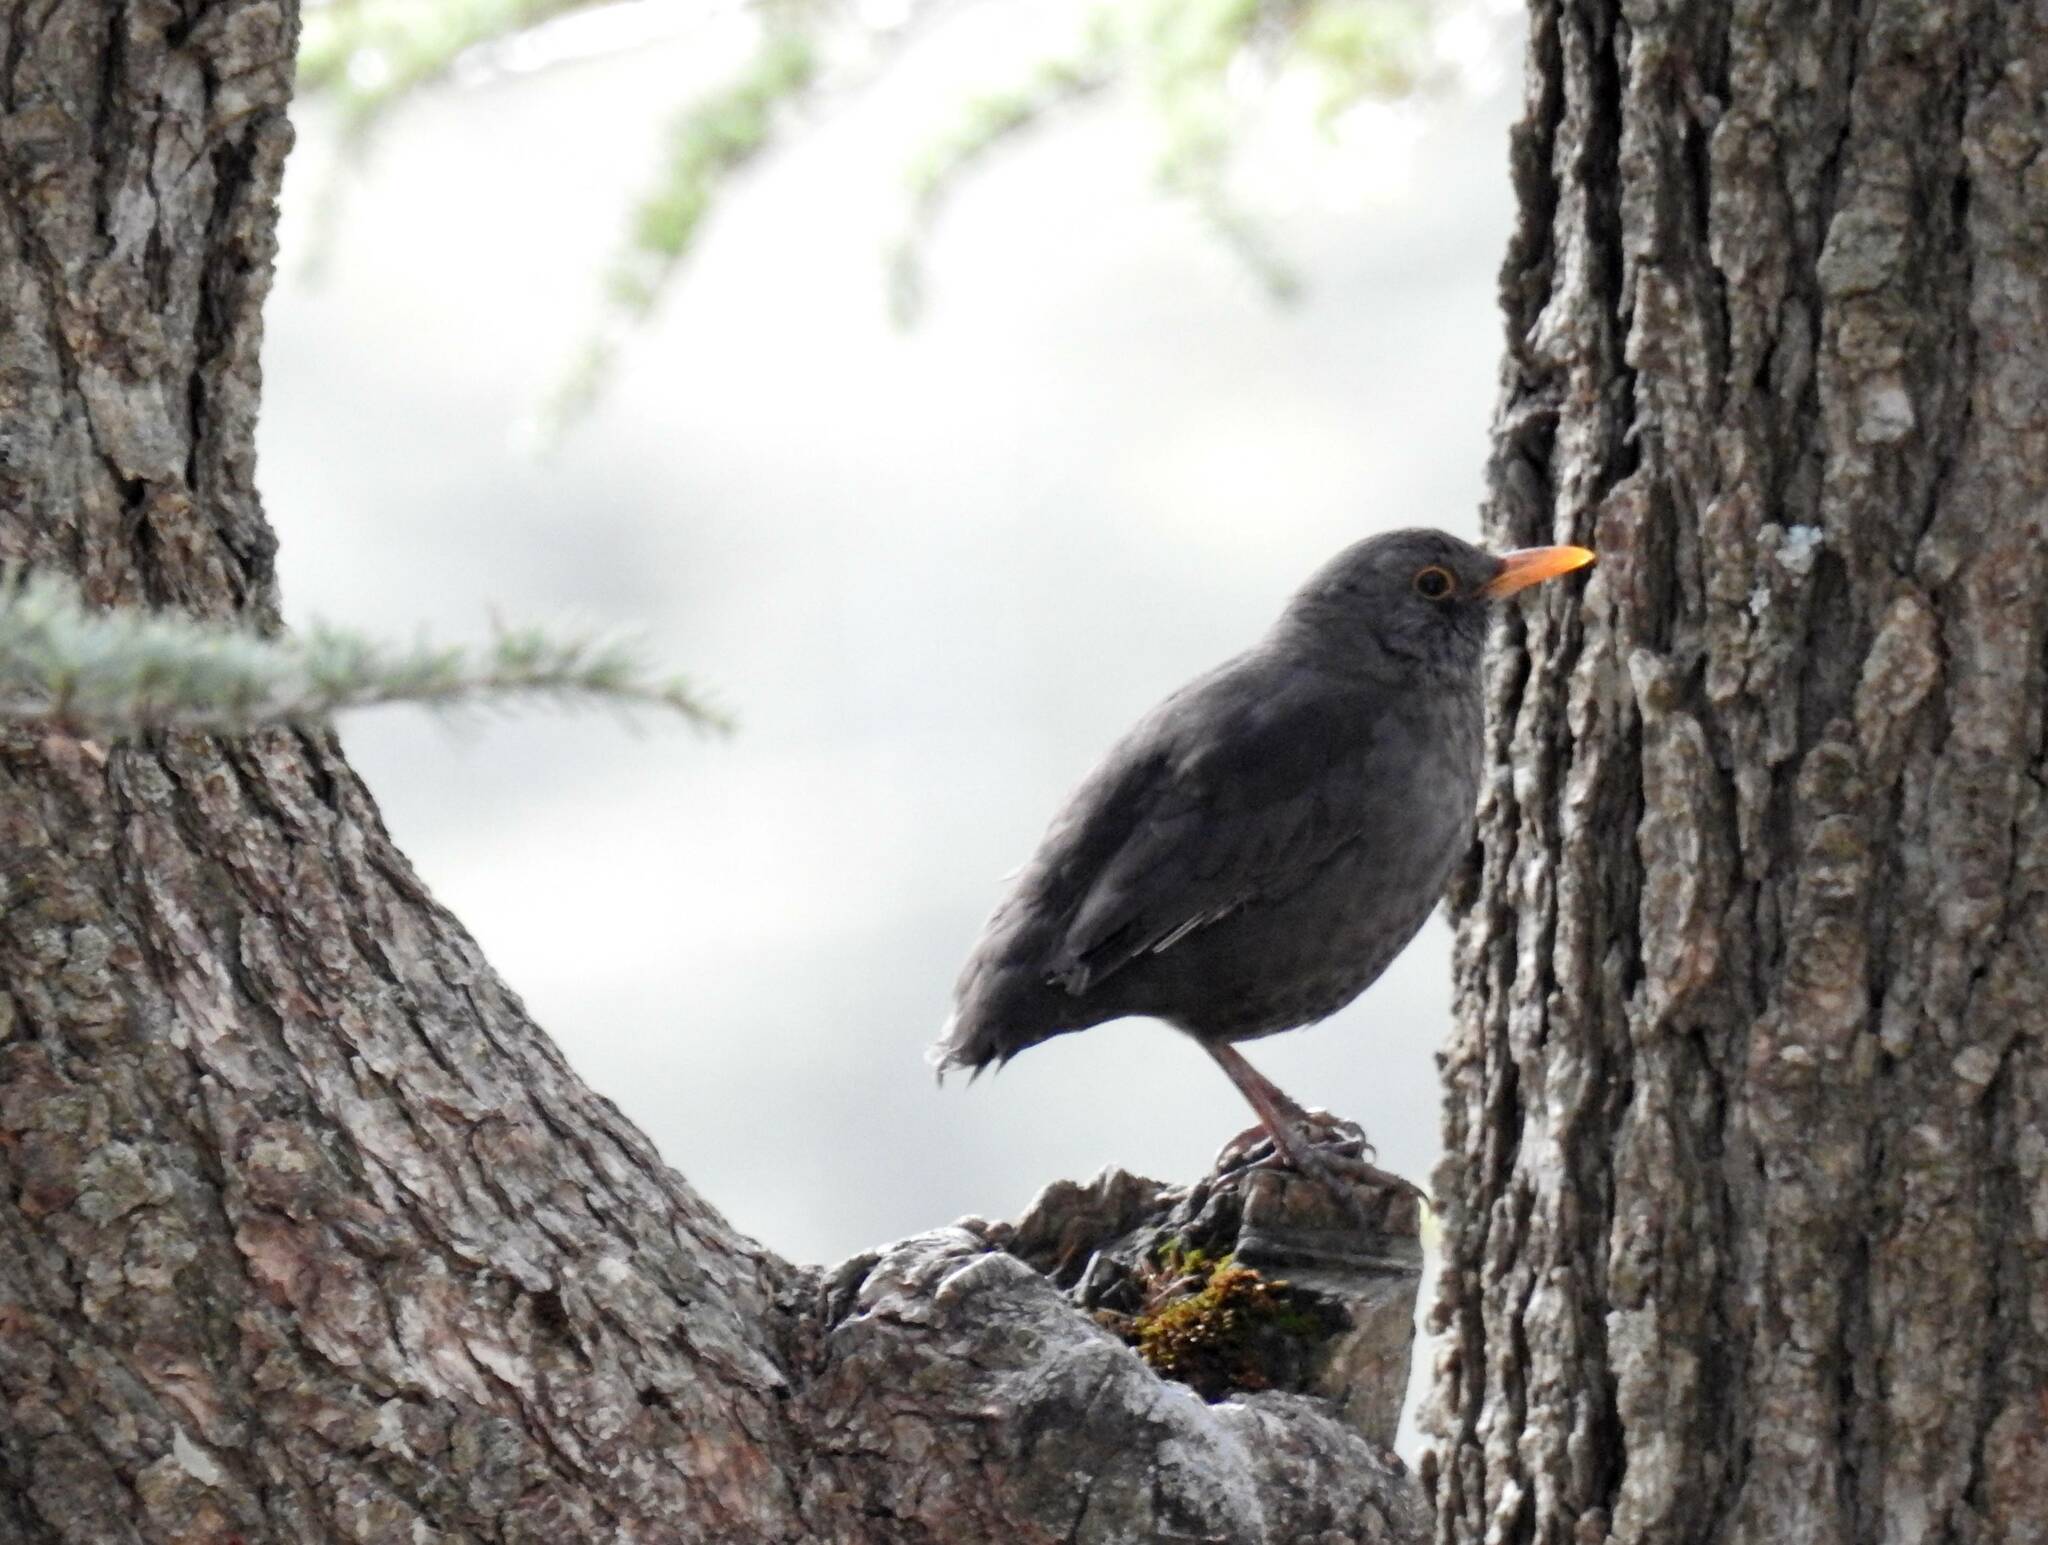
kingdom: Animalia
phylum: Chordata
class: Aves
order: Passeriformes
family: Turdidae
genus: Turdus
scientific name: Turdus merula
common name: Common blackbird
